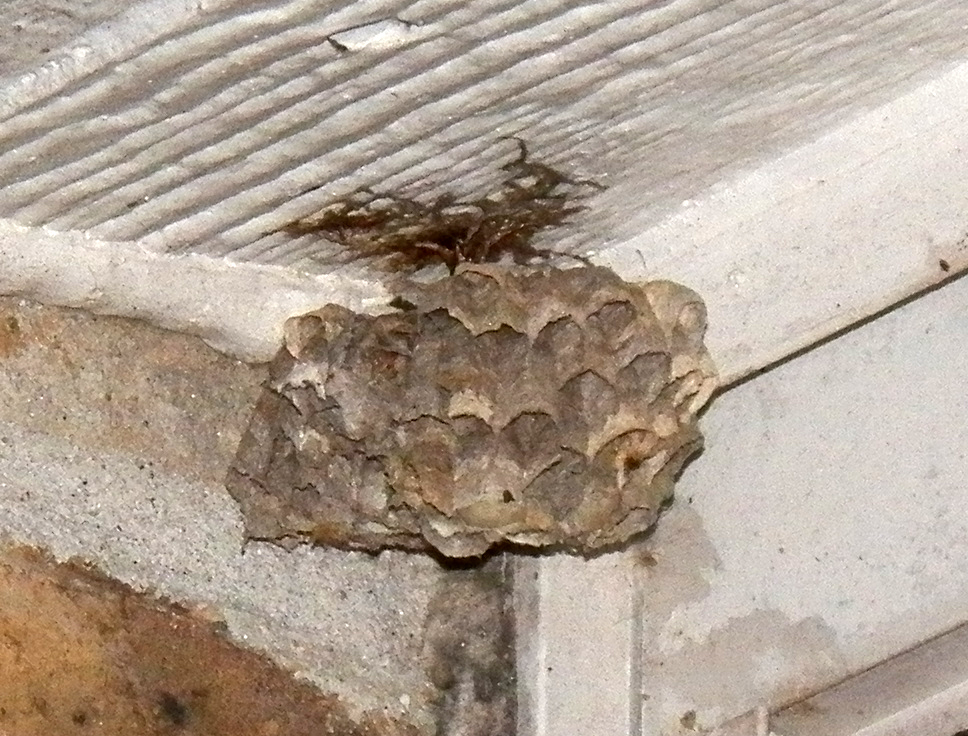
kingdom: Animalia
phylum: Arthropoda
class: Insecta
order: Hymenoptera
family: Eumenidae
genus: Polistes
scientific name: Polistes
